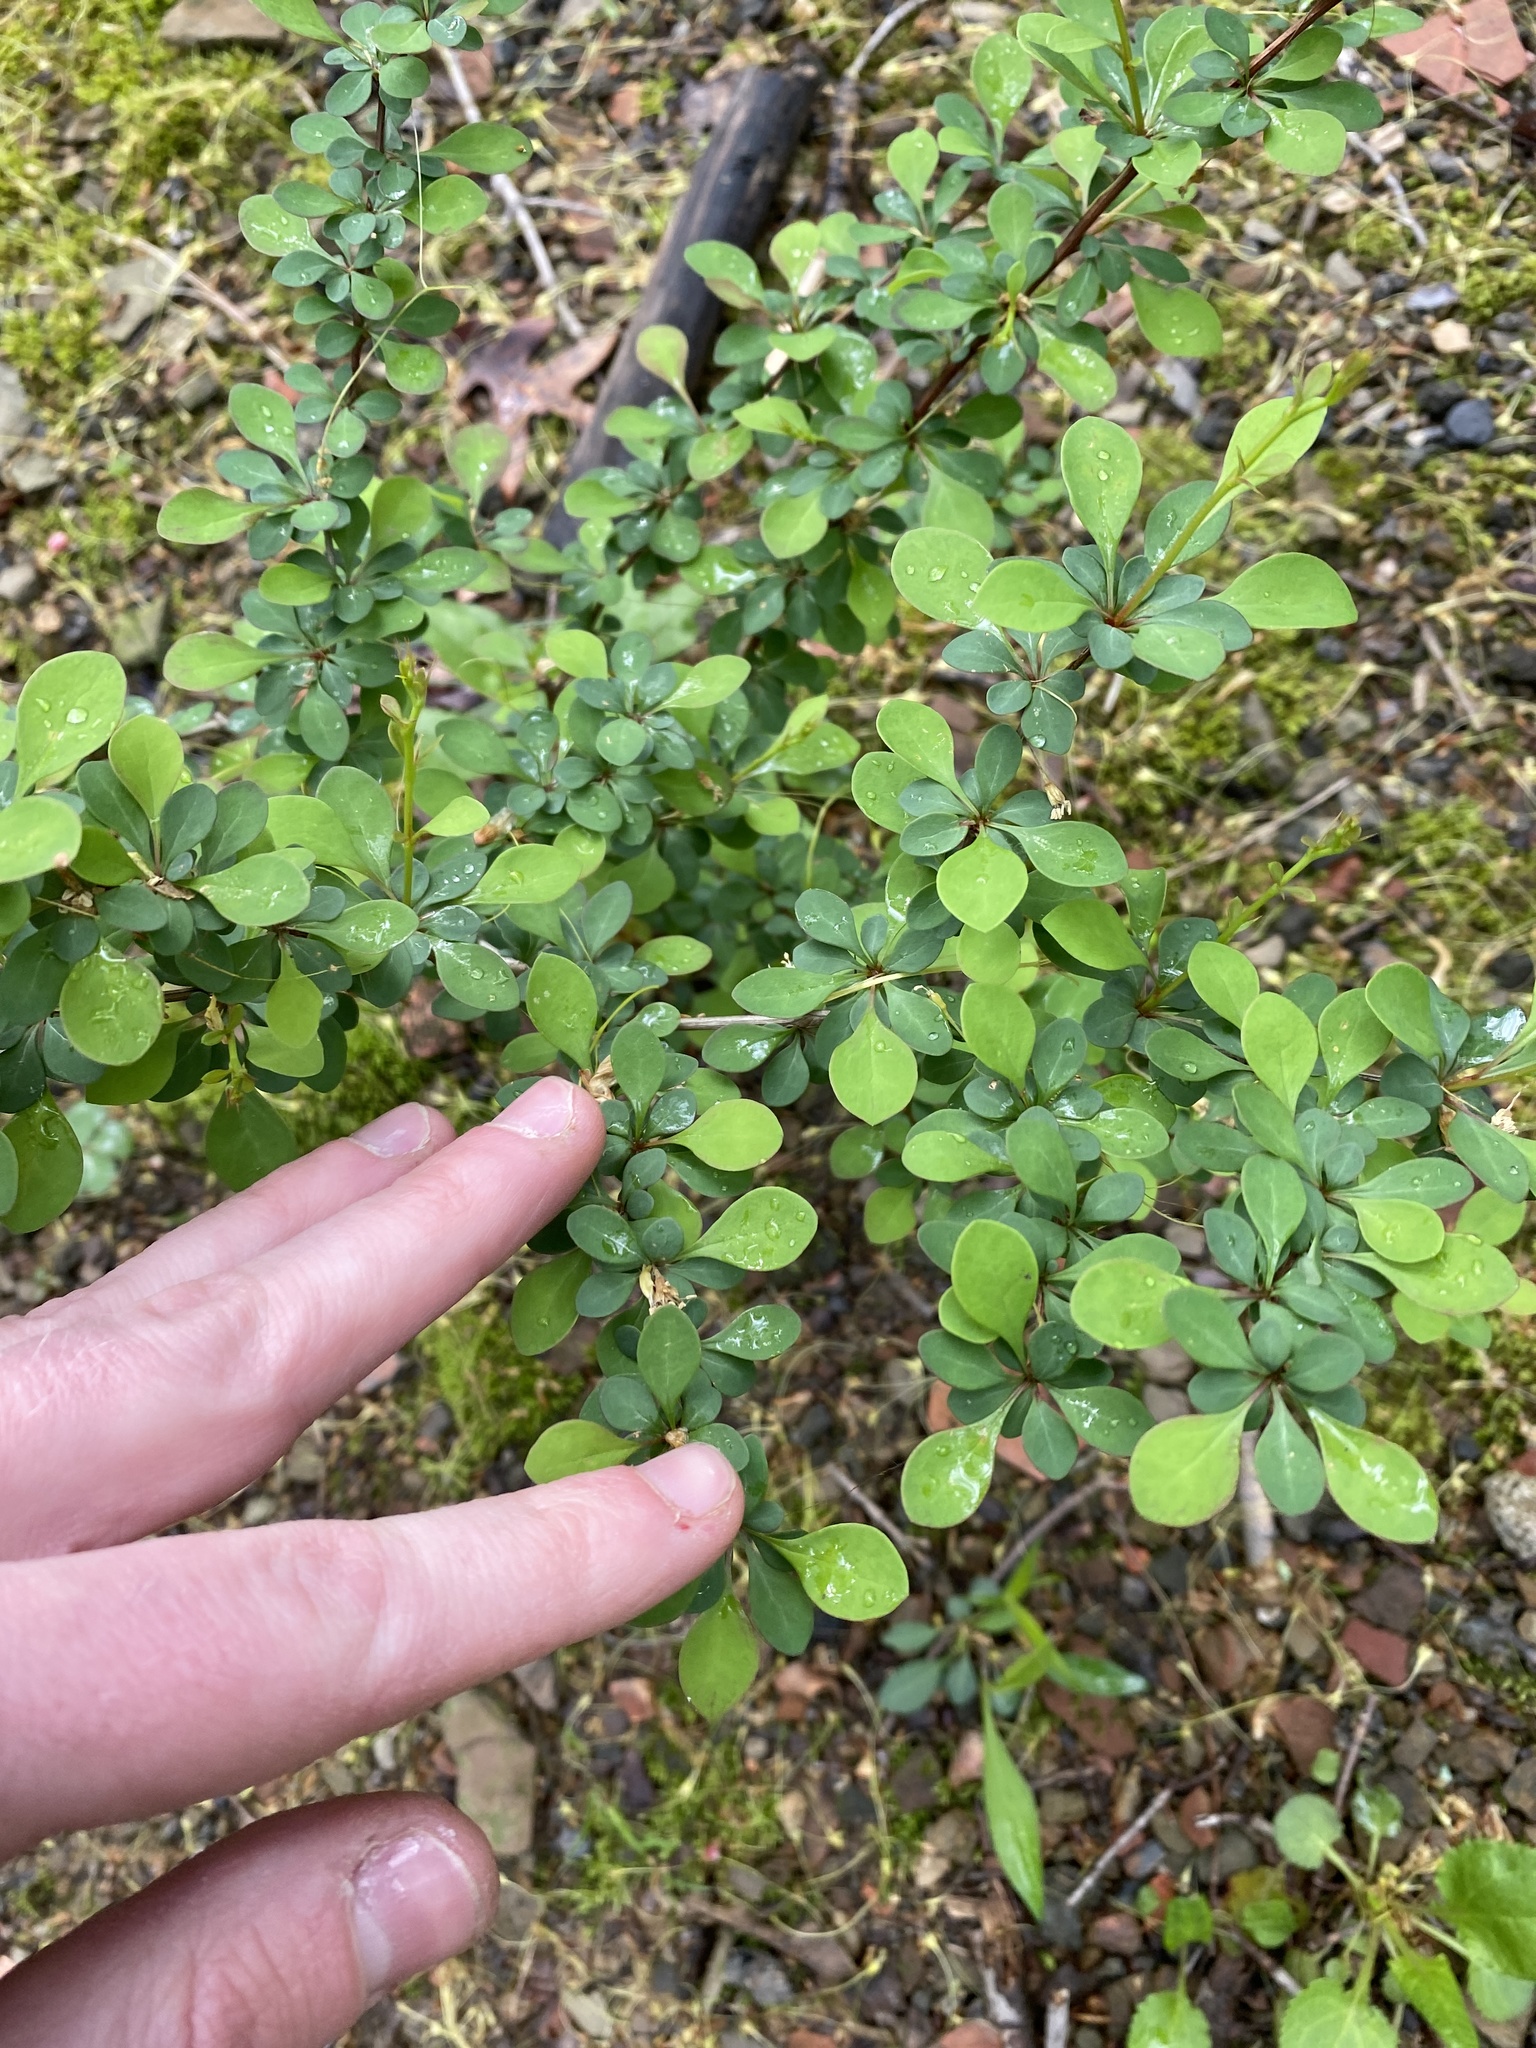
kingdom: Plantae
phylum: Tracheophyta
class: Magnoliopsida
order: Ranunculales
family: Berberidaceae
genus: Berberis
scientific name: Berberis thunbergii
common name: Japanese barberry
